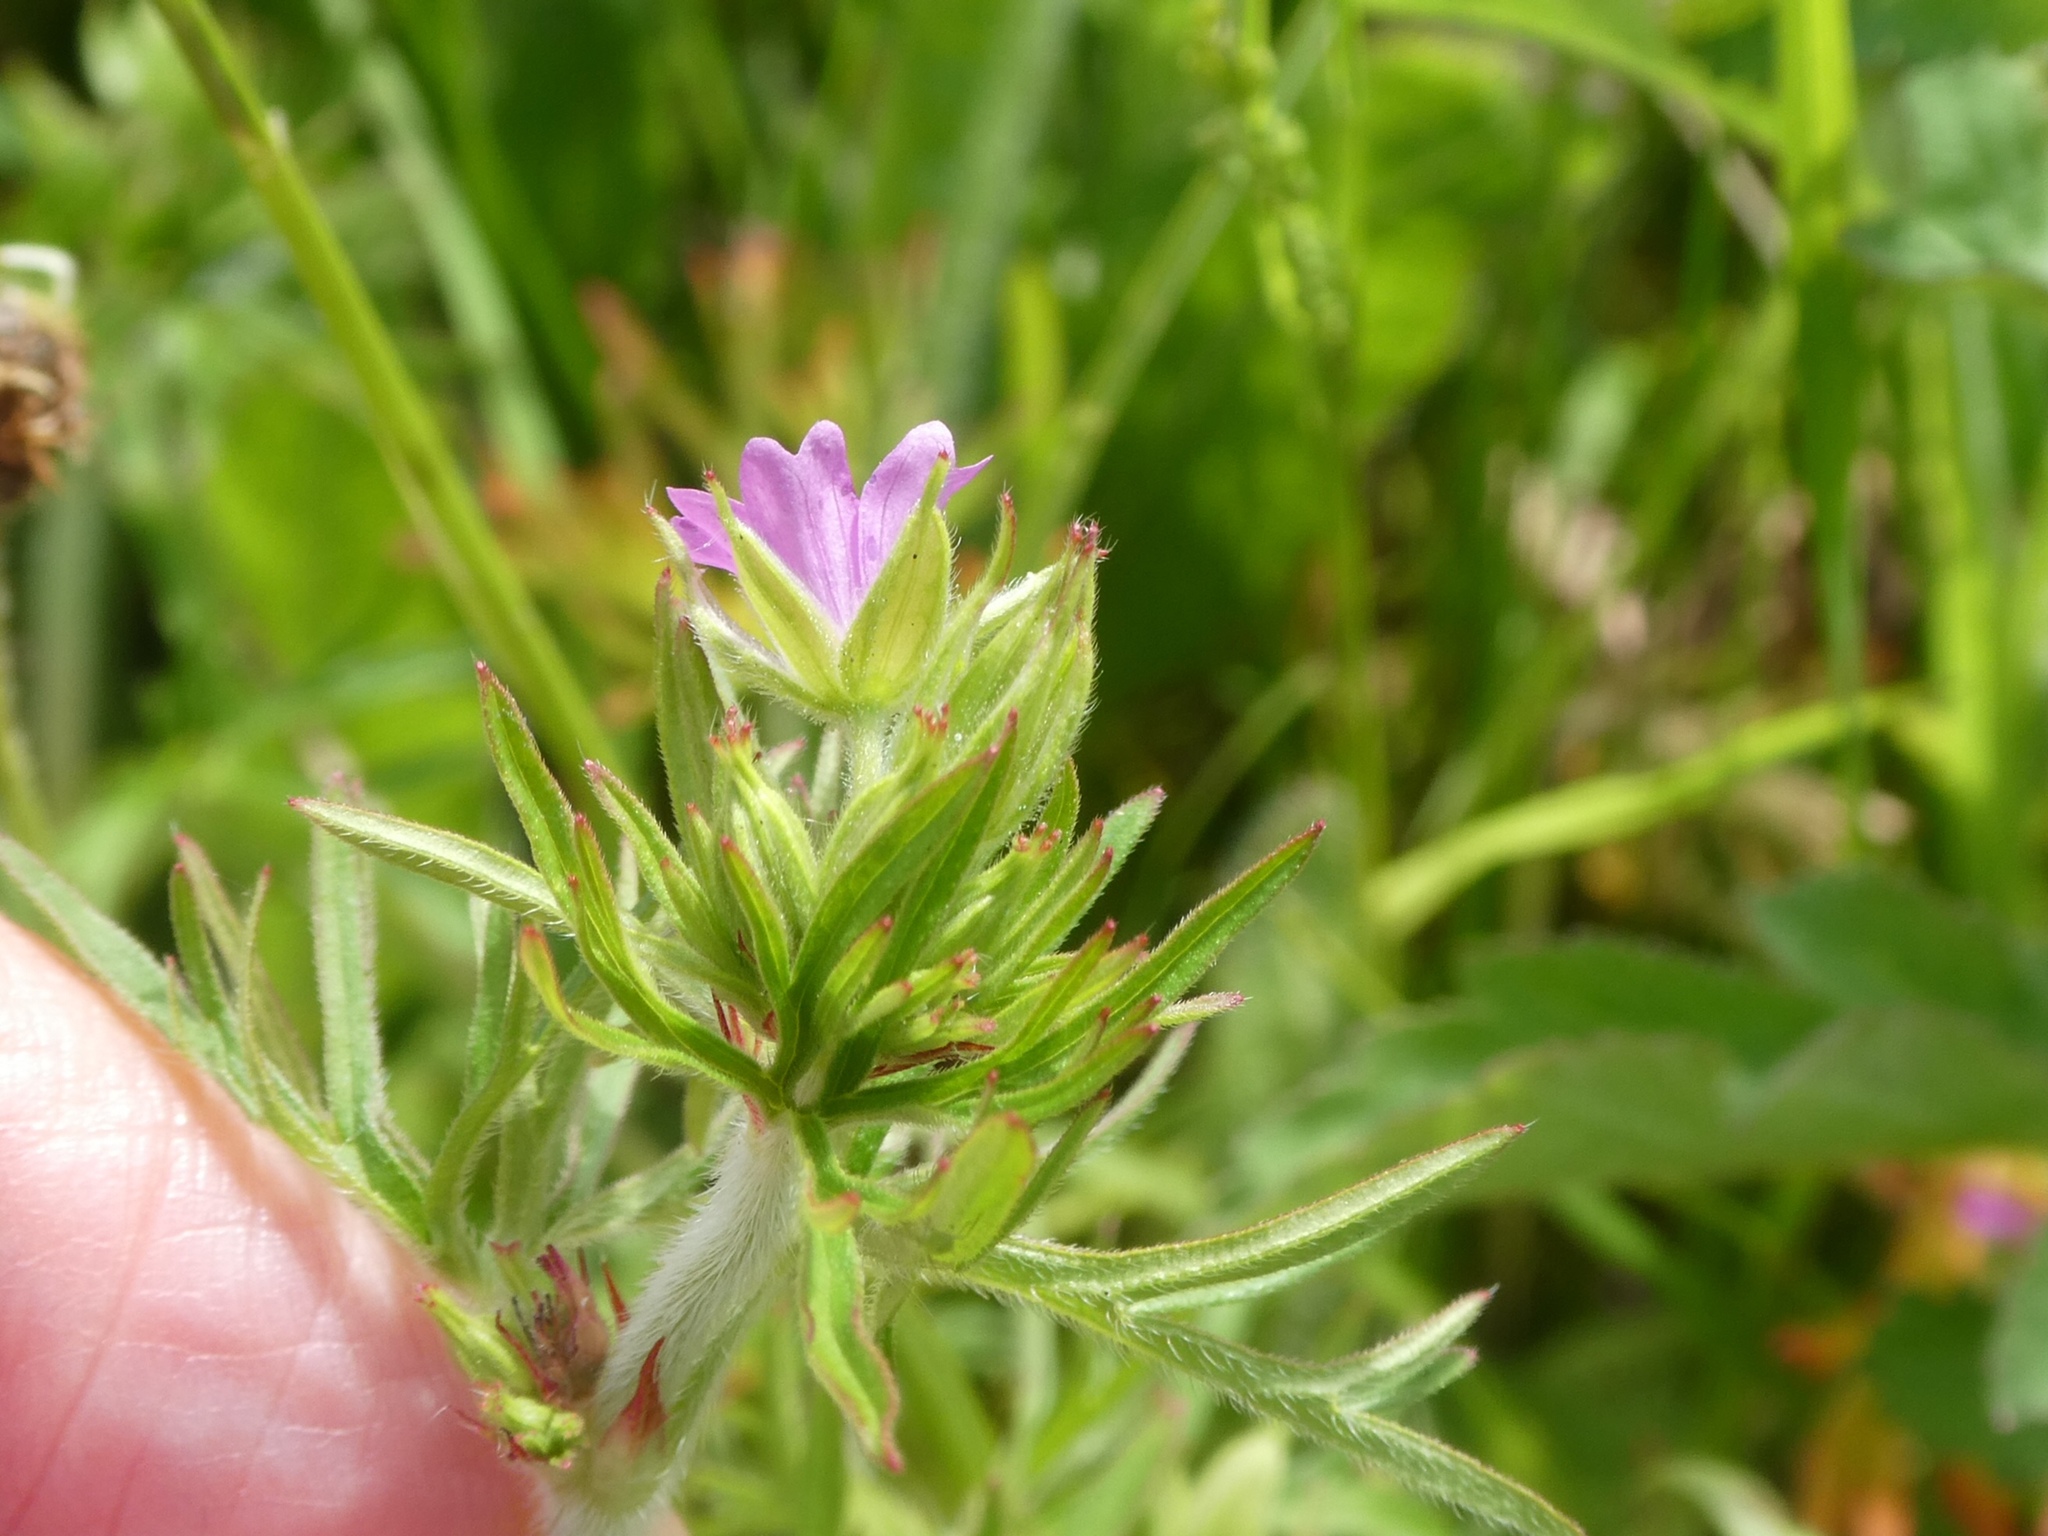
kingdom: Plantae
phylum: Tracheophyta
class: Magnoliopsida
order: Geraniales
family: Geraniaceae
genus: Geranium
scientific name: Geranium dissectum
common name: Cut-leaved crane's-bill
